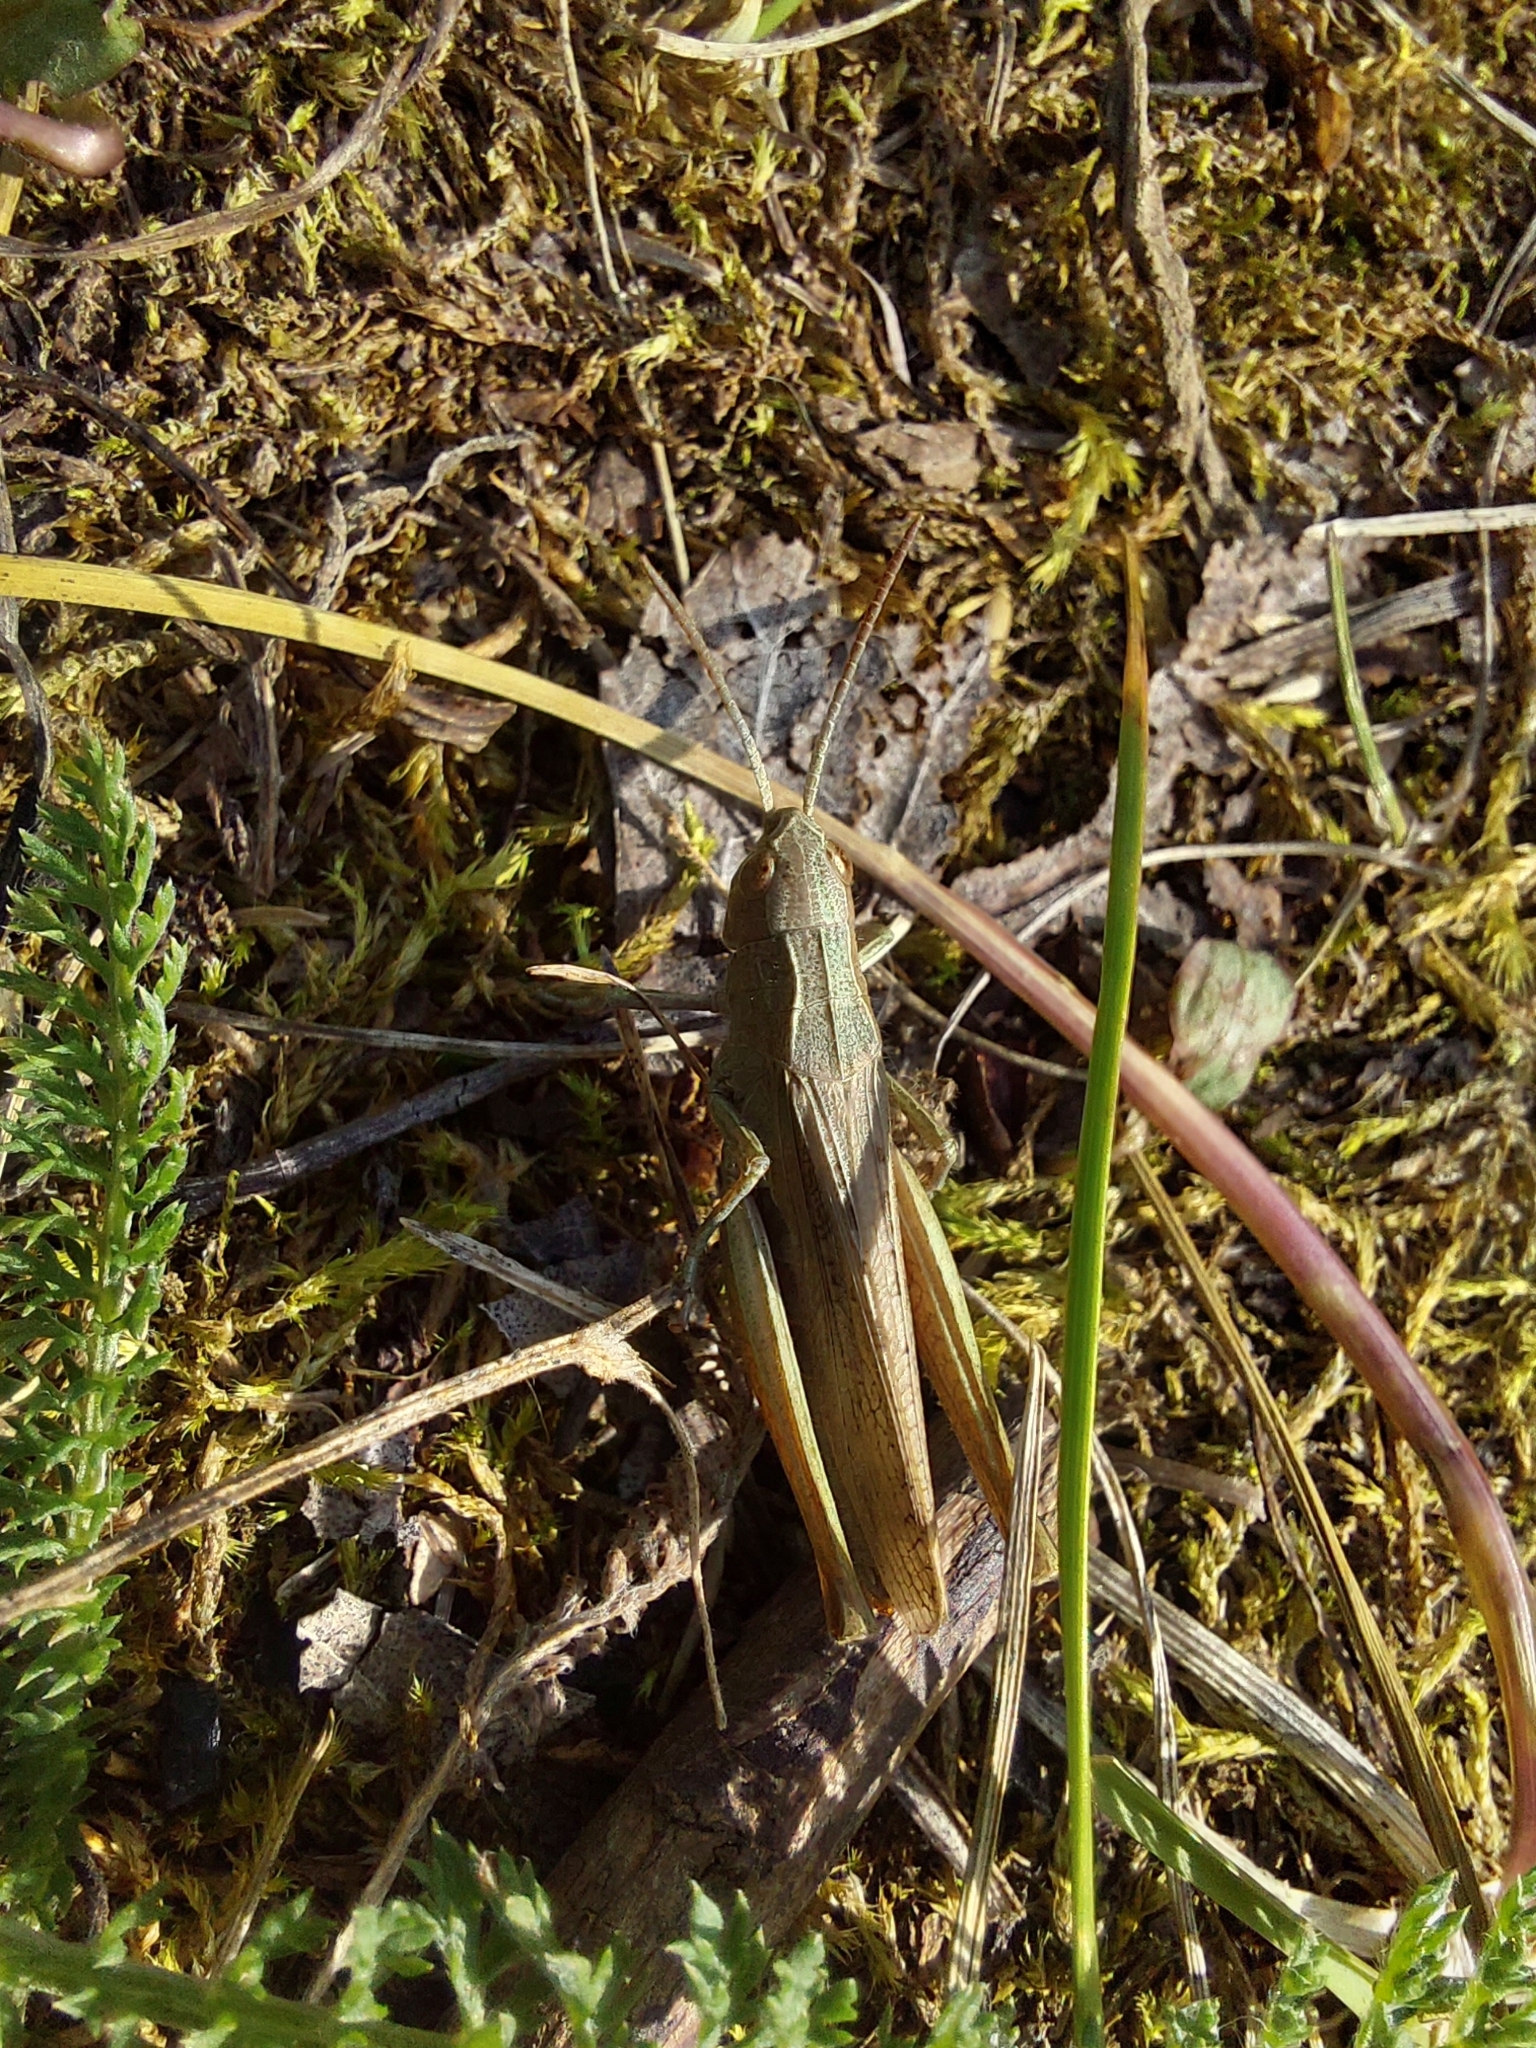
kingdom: Animalia
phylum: Arthropoda
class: Insecta
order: Orthoptera
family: Acrididae
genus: Chorthippus
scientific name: Chorthippus dorsatus
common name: Steppe grasshopper
